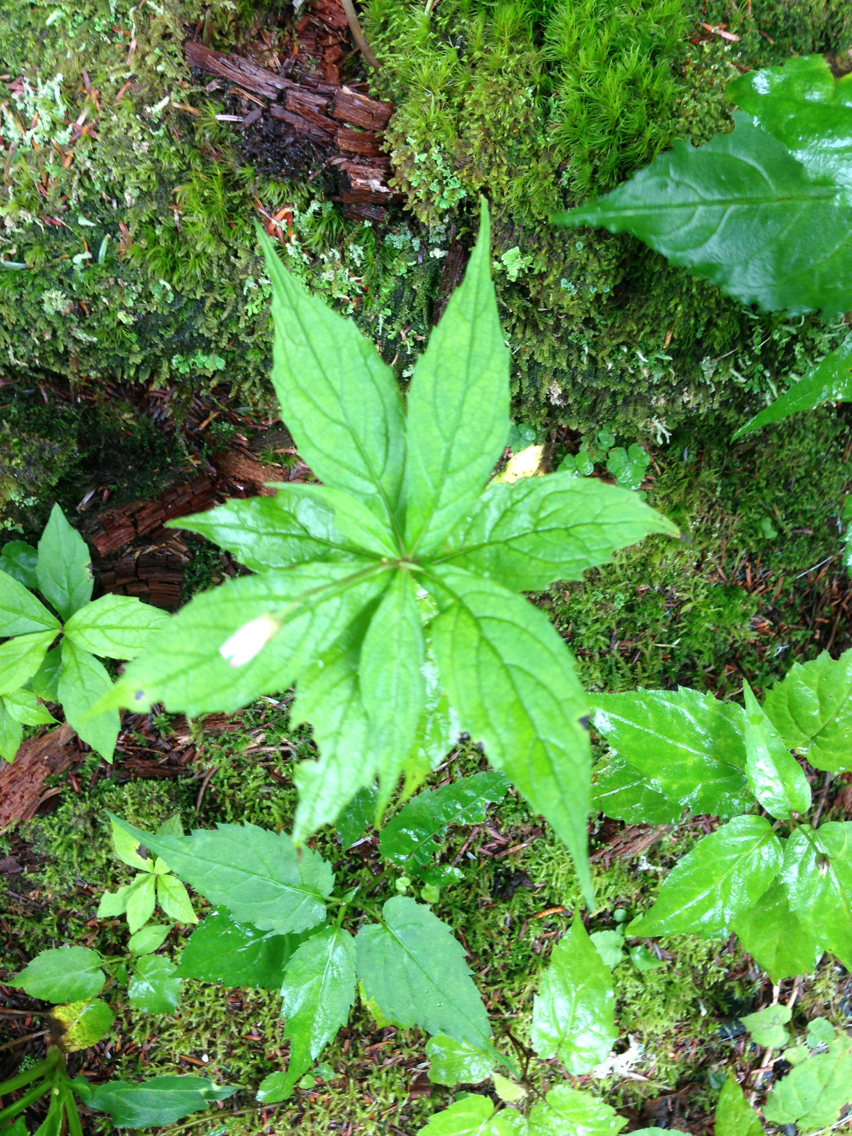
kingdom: Plantae
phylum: Tracheophyta
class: Magnoliopsida
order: Asterales
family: Asteraceae
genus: Oclemena
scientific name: Oclemena acuminata
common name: Mountain aster
